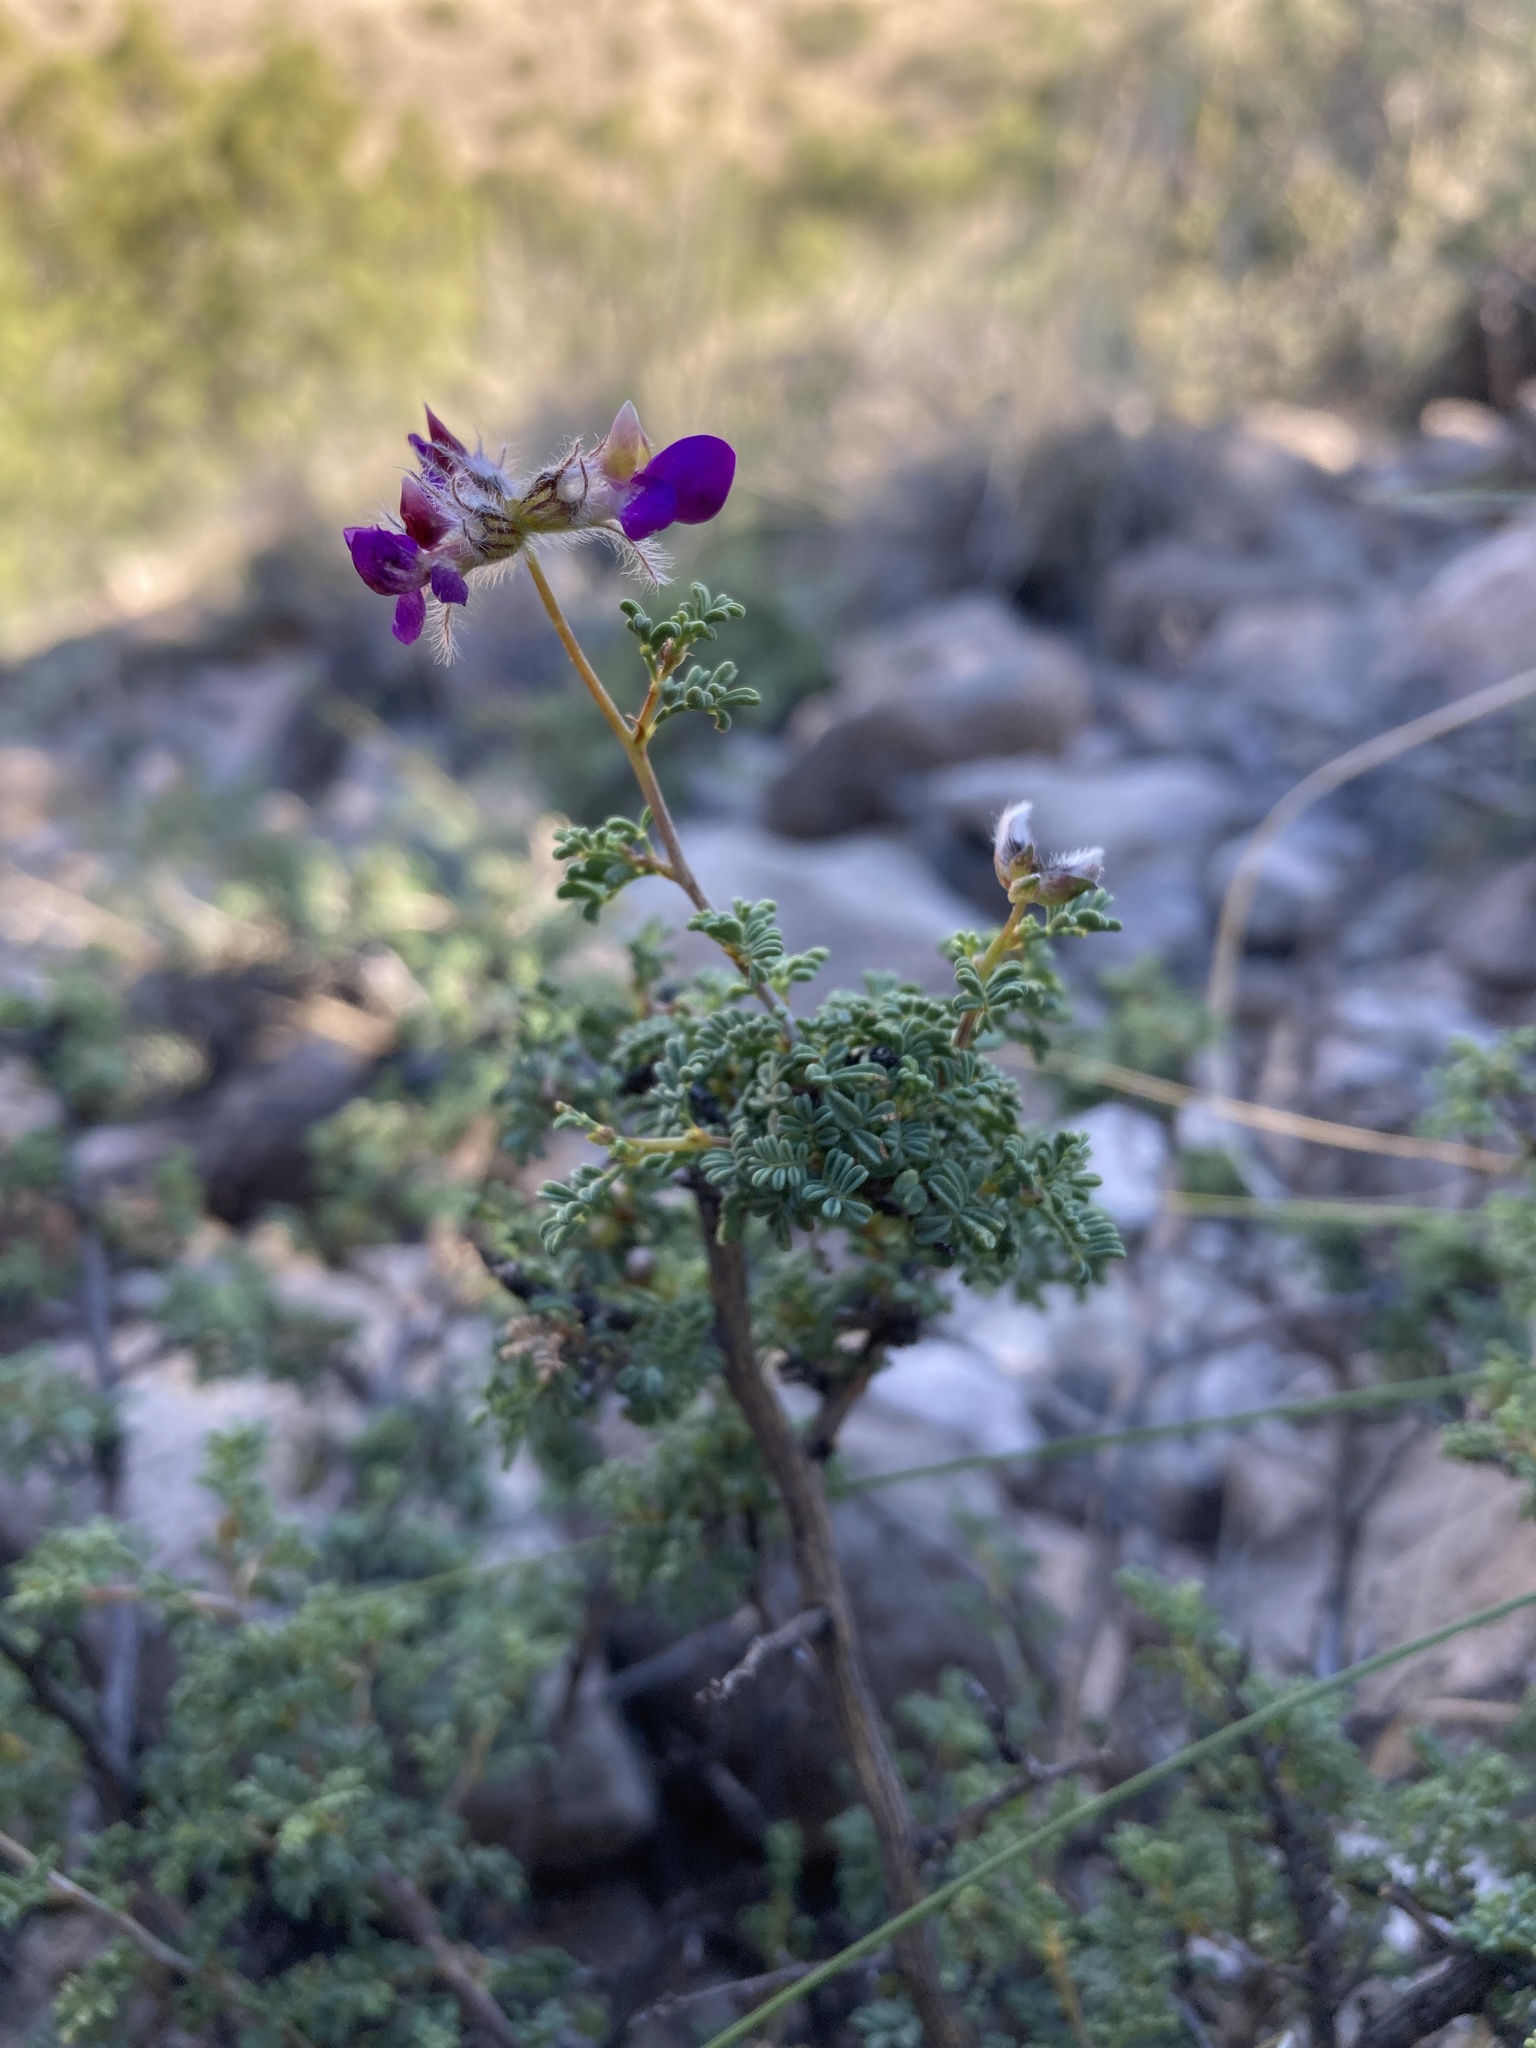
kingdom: Plantae
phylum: Tracheophyta
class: Magnoliopsida
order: Fabales
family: Fabaceae
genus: Dalea
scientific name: Dalea formosa
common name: Feather-plume dalea
